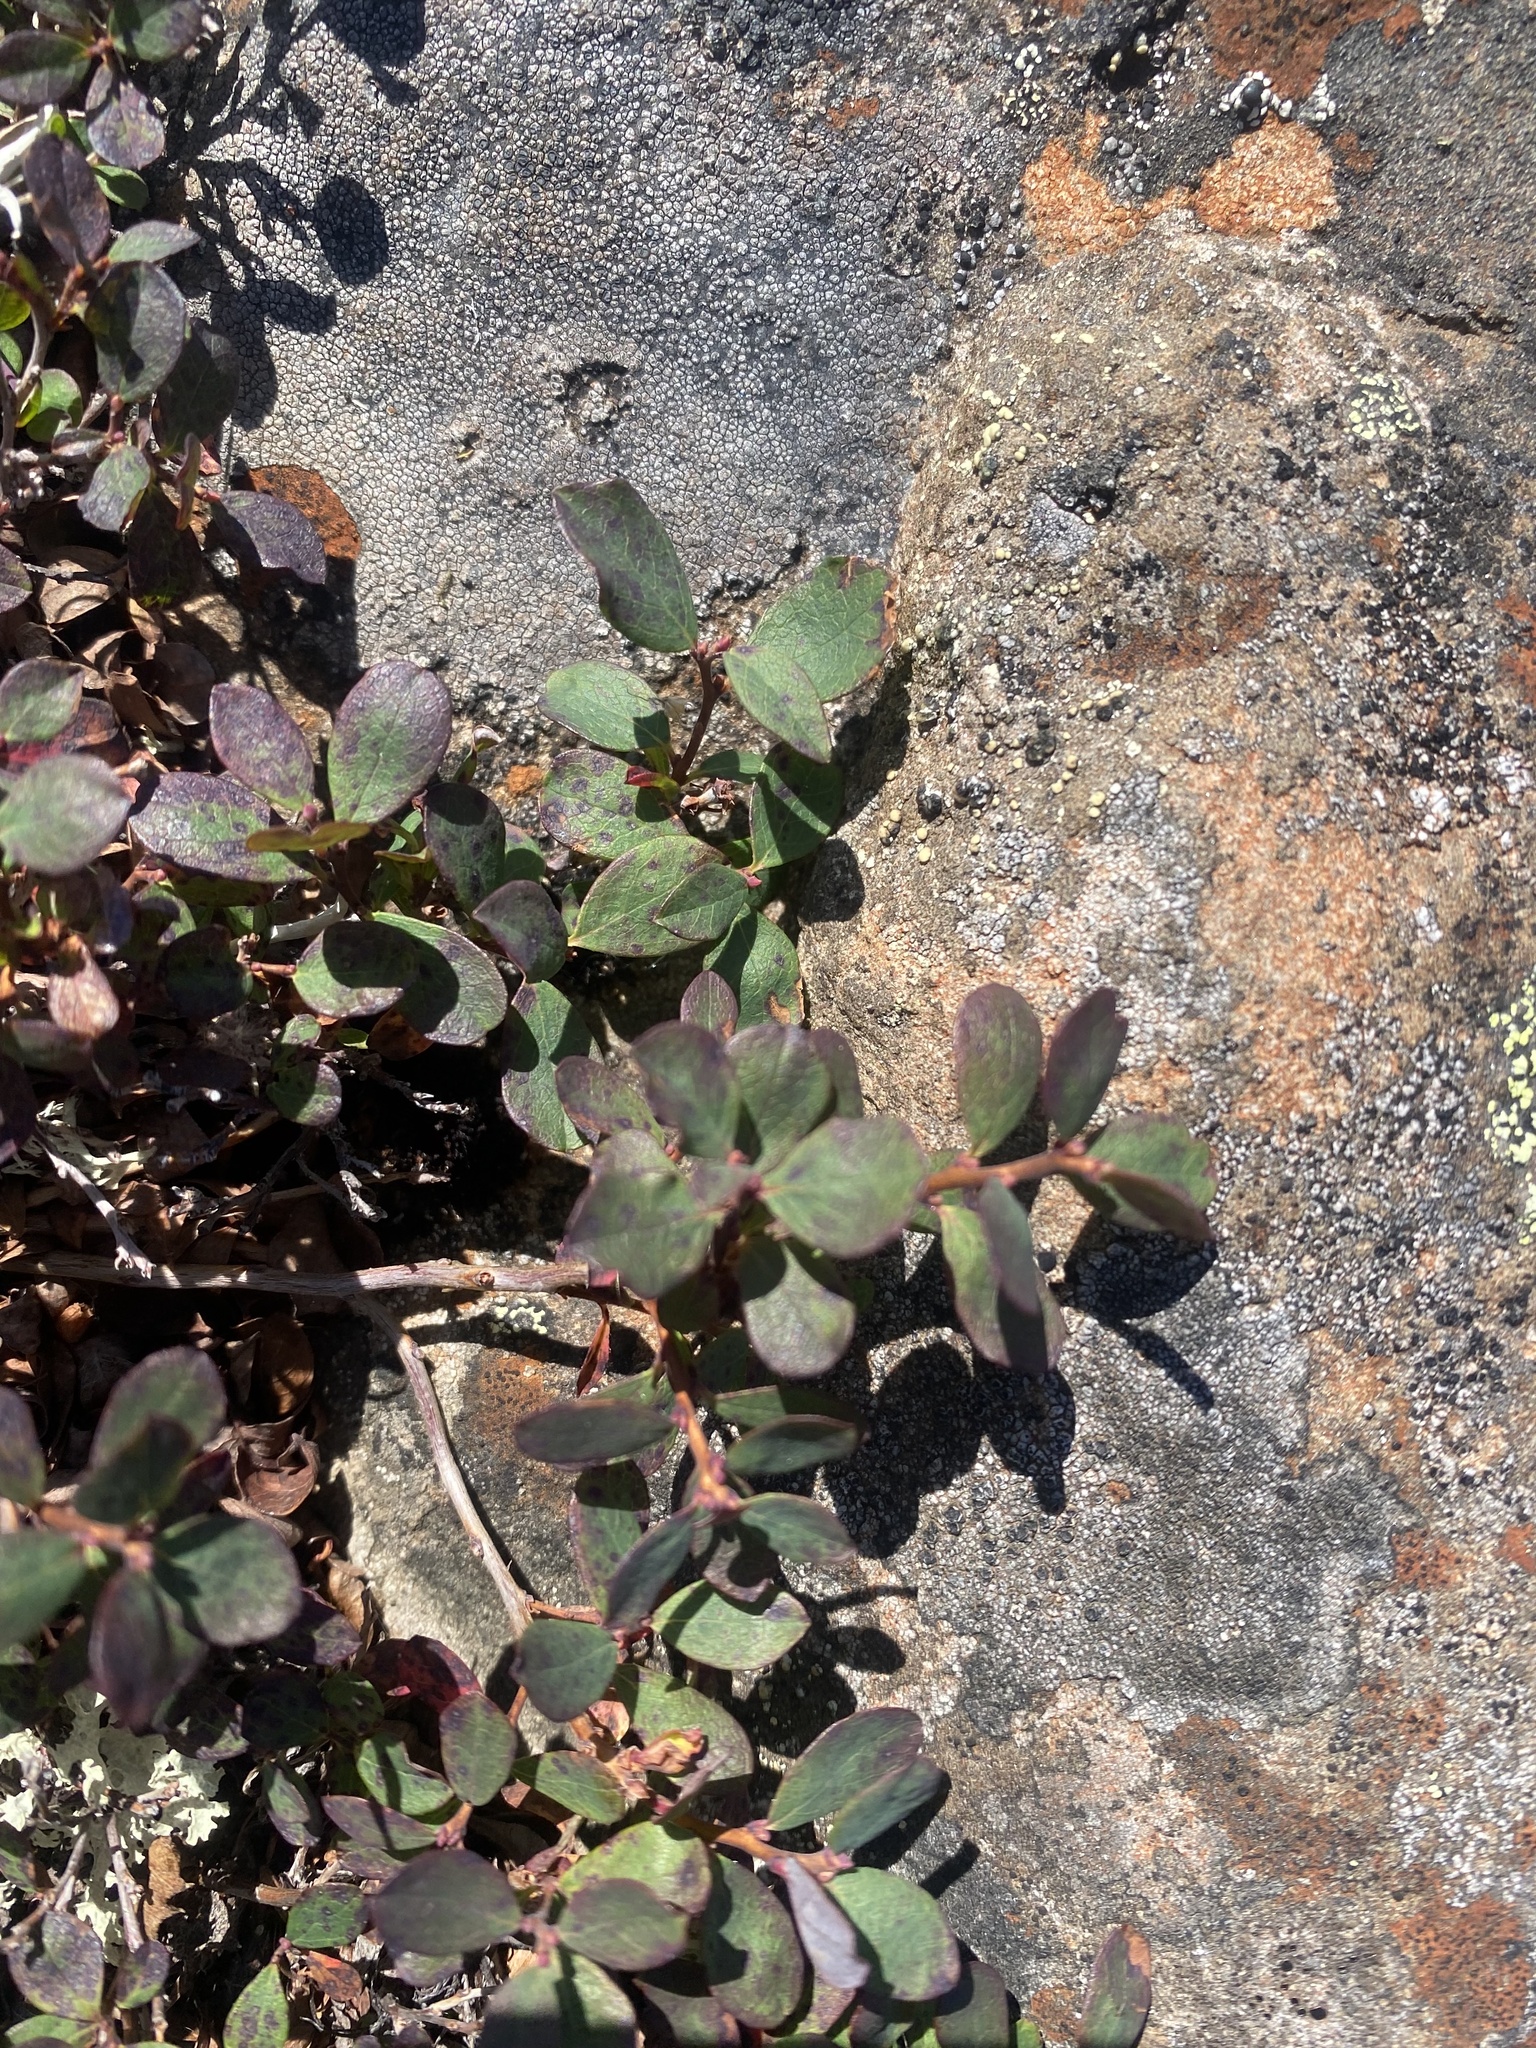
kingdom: Plantae
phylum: Tracheophyta
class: Magnoliopsida
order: Ericales
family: Ericaceae
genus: Vaccinium
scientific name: Vaccinium uliginosum
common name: Bog bilberry
